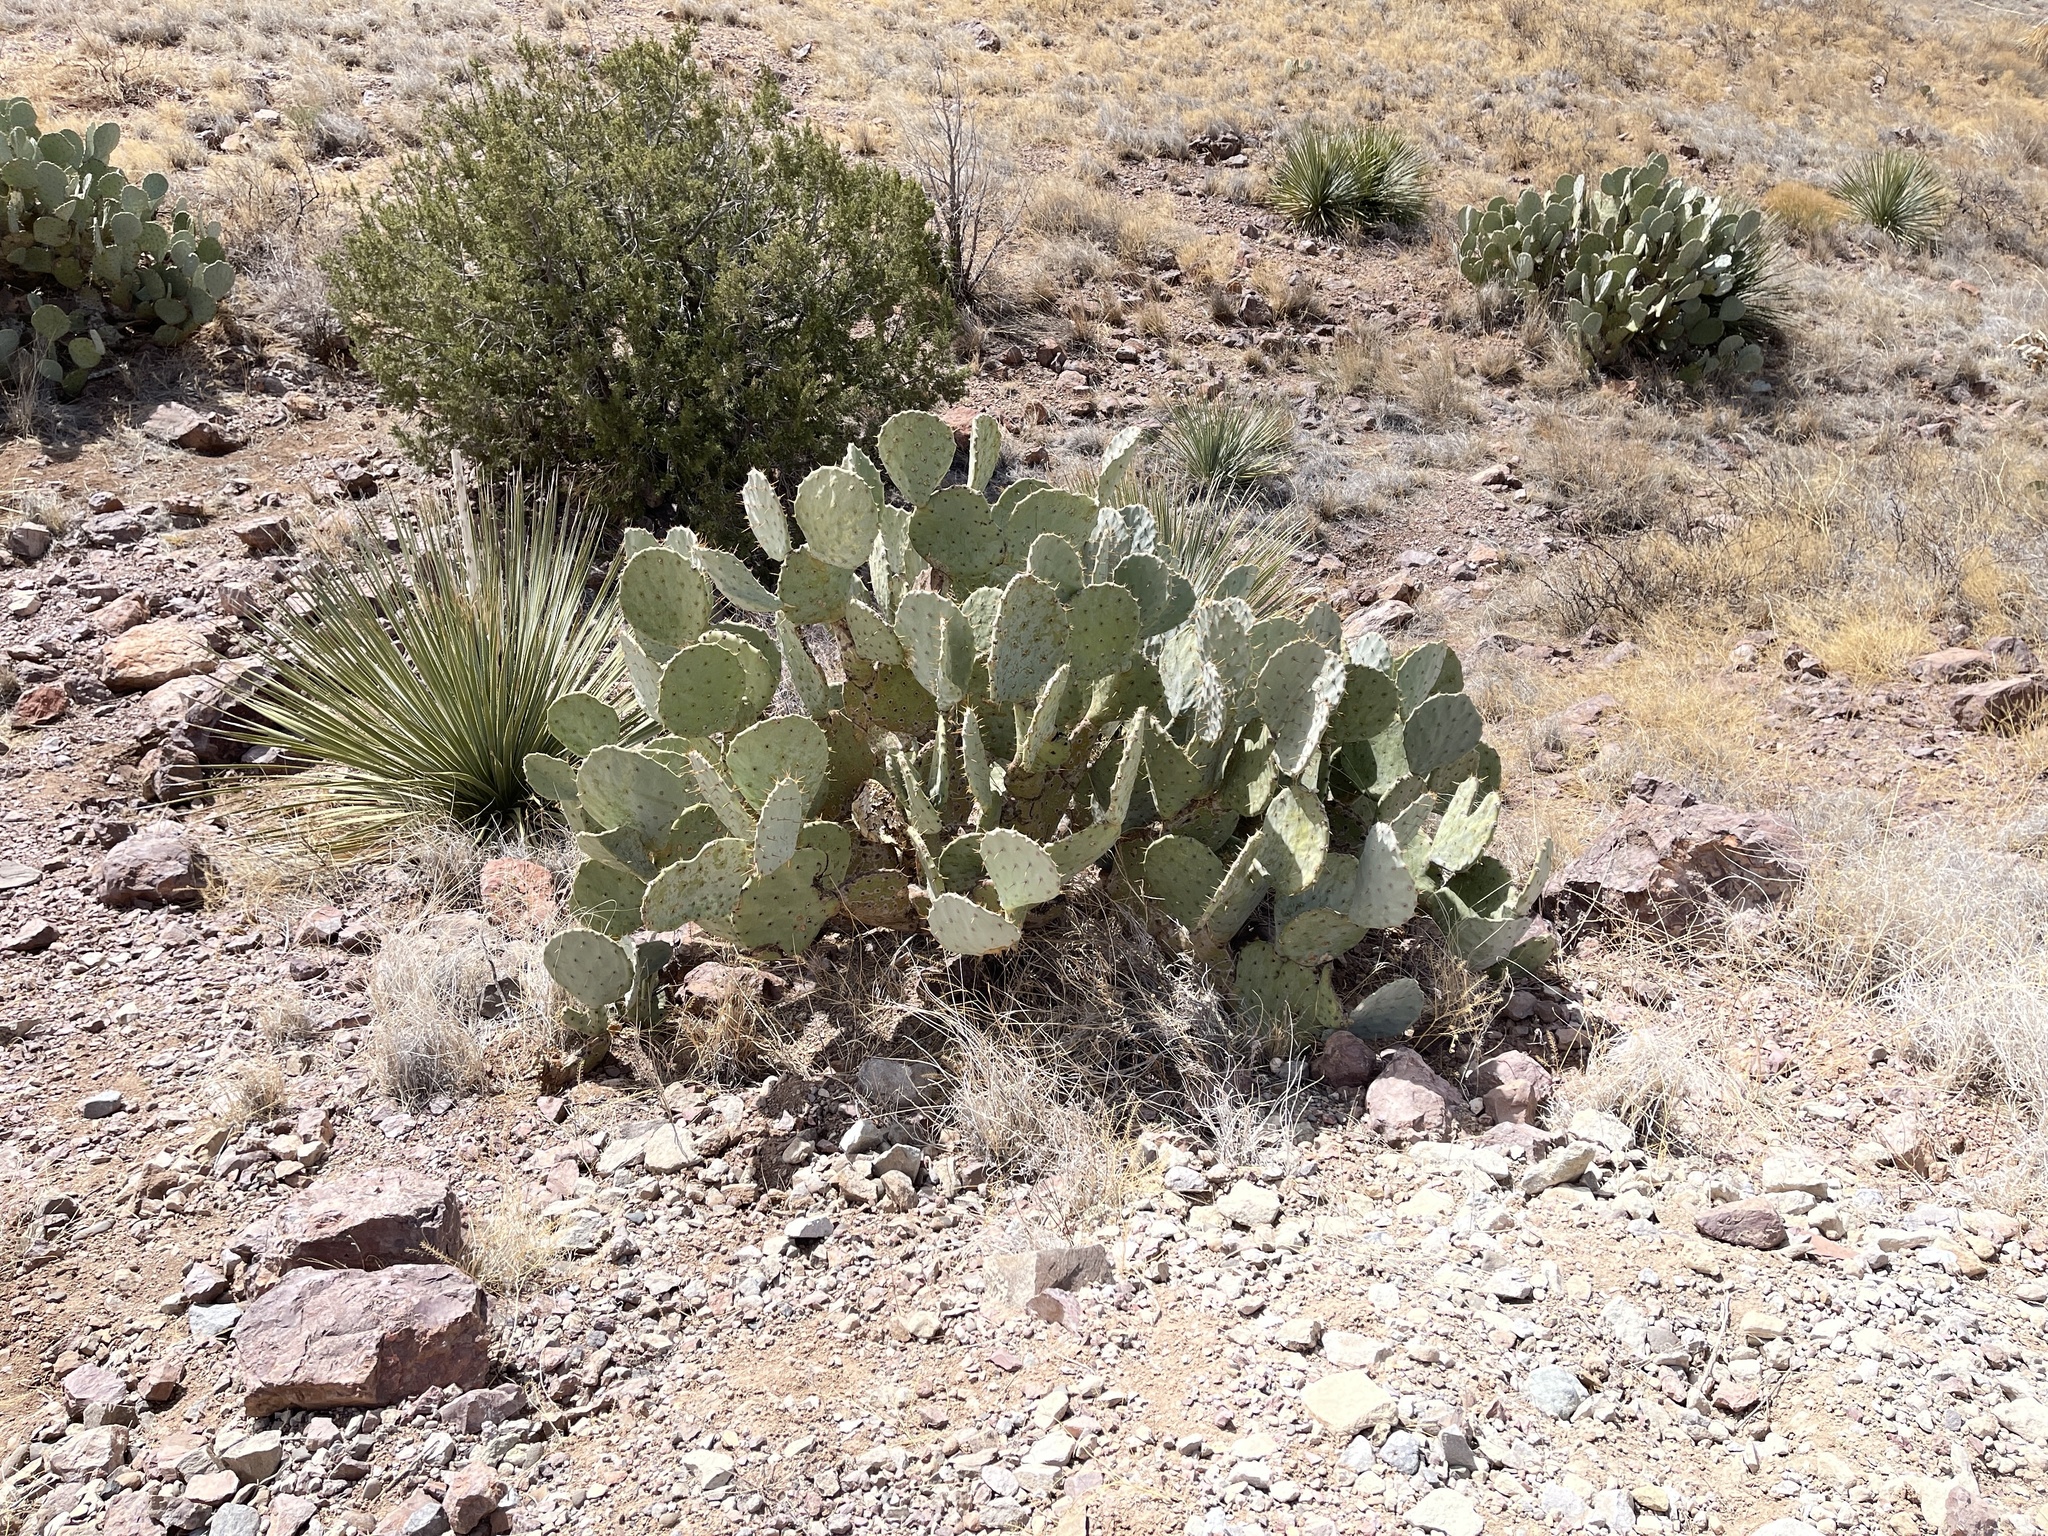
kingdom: Plantae
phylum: Tracheophyta
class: Magnoliopsida
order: Caryophyllales
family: Cactaceae
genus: Opuntia
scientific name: Opuntia engelmannii
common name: Cactus-apple
